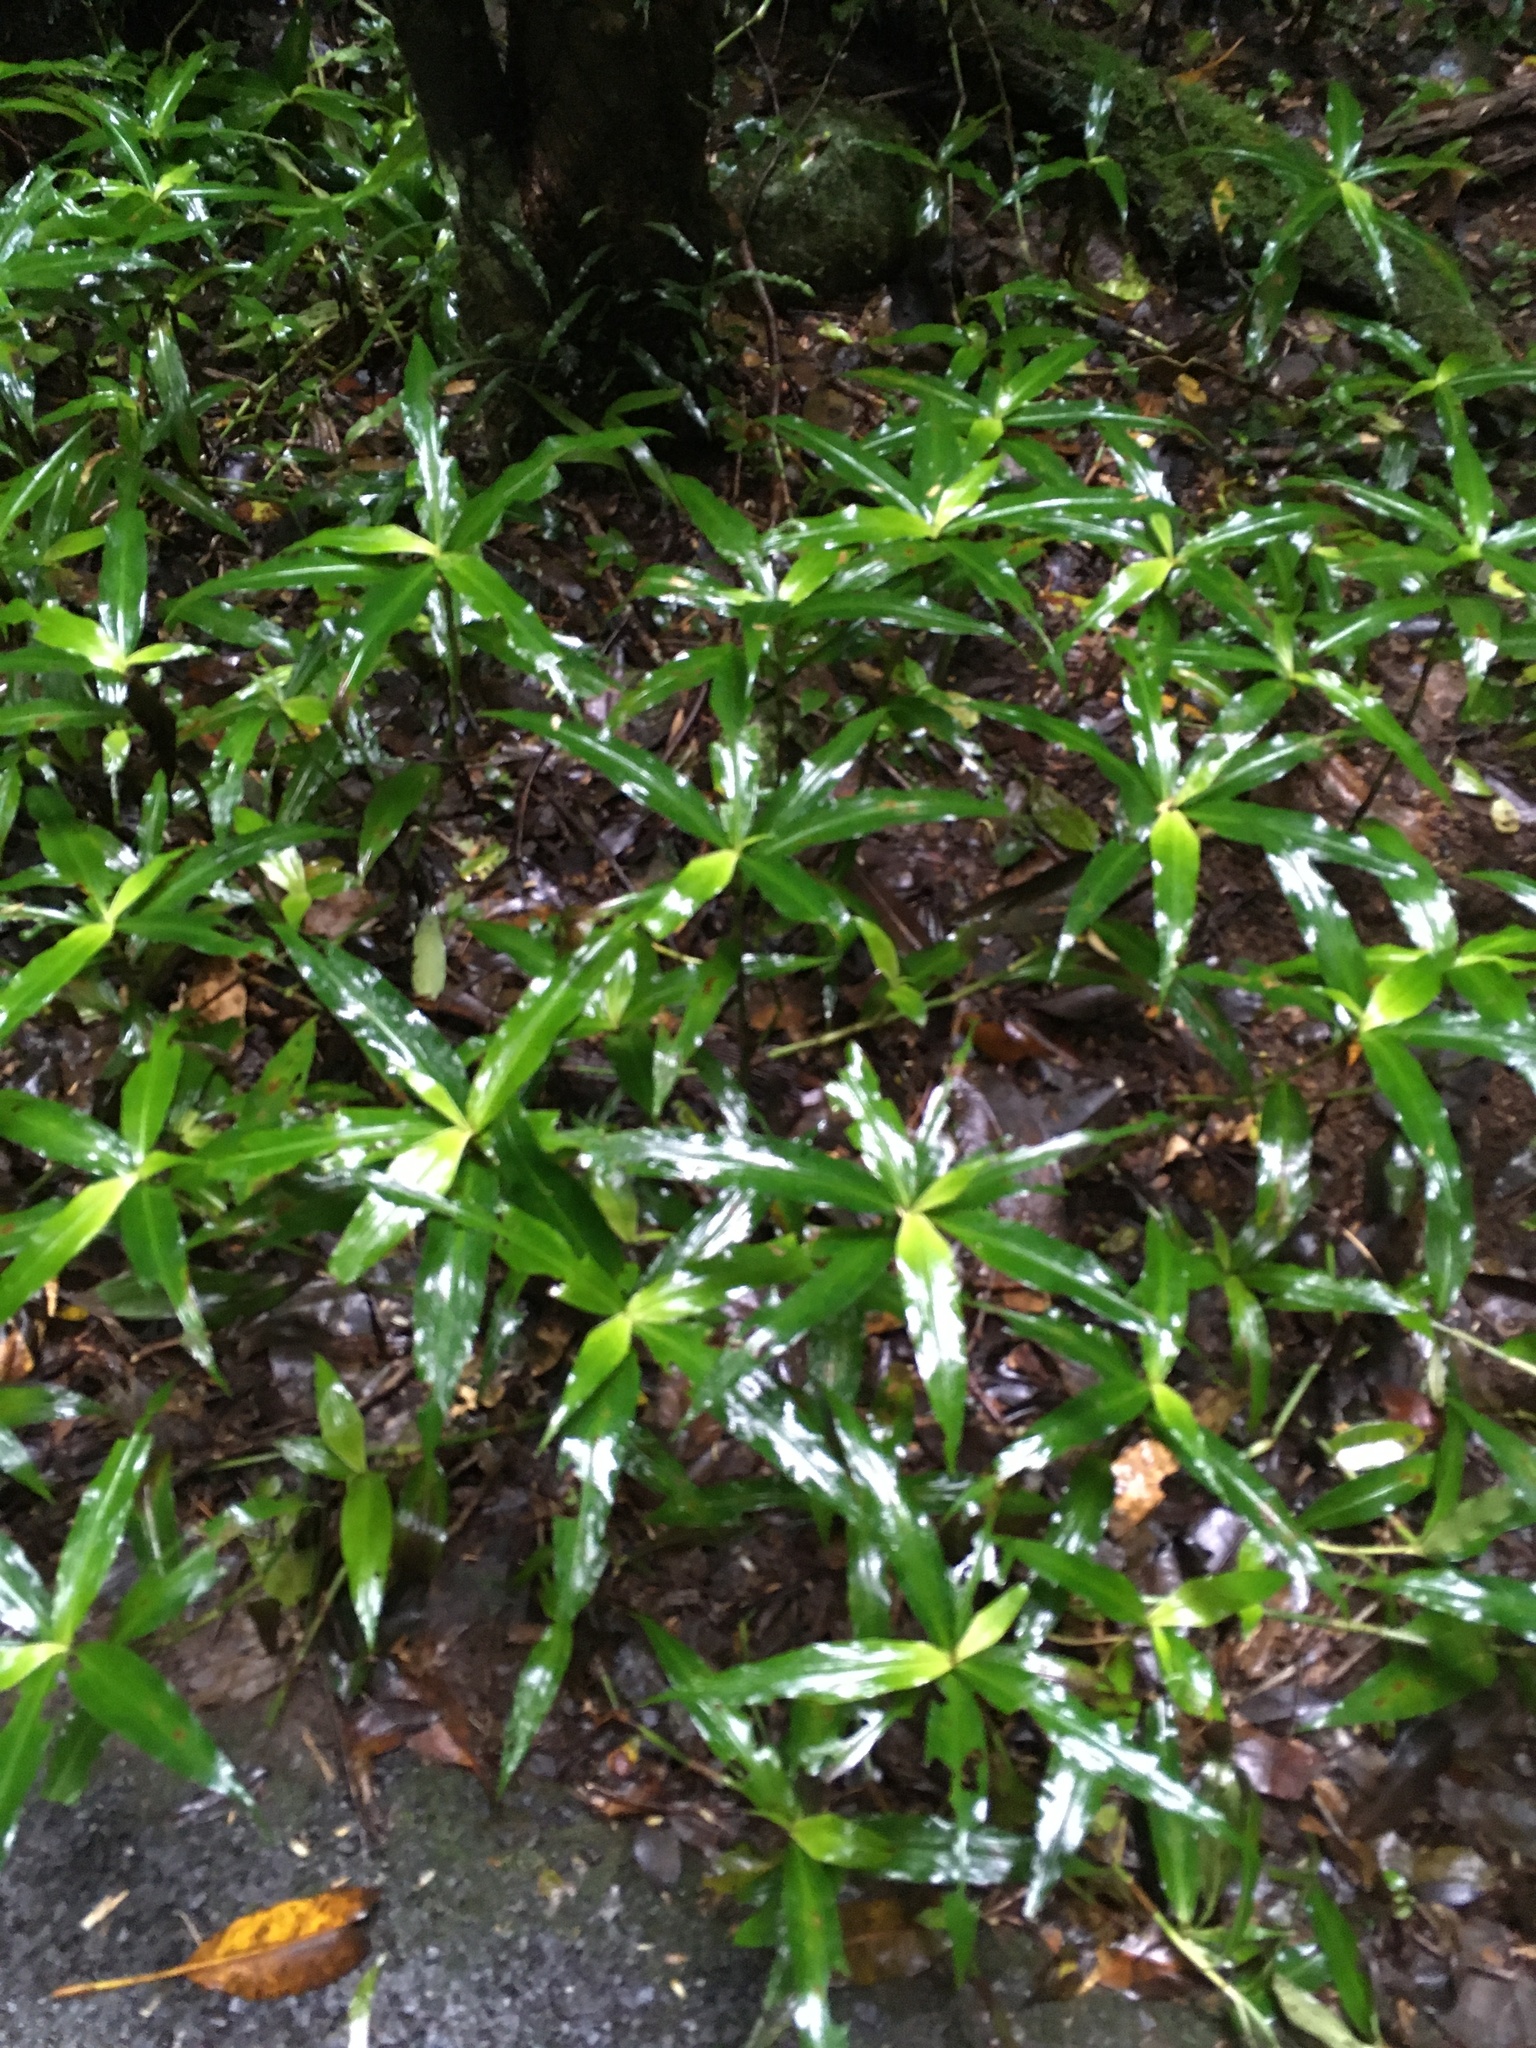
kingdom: Plantae
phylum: Tracheophyta
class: Liliopsida
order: Commelinales
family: Commelinaceae
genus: Pollia
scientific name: Pollia crispata
